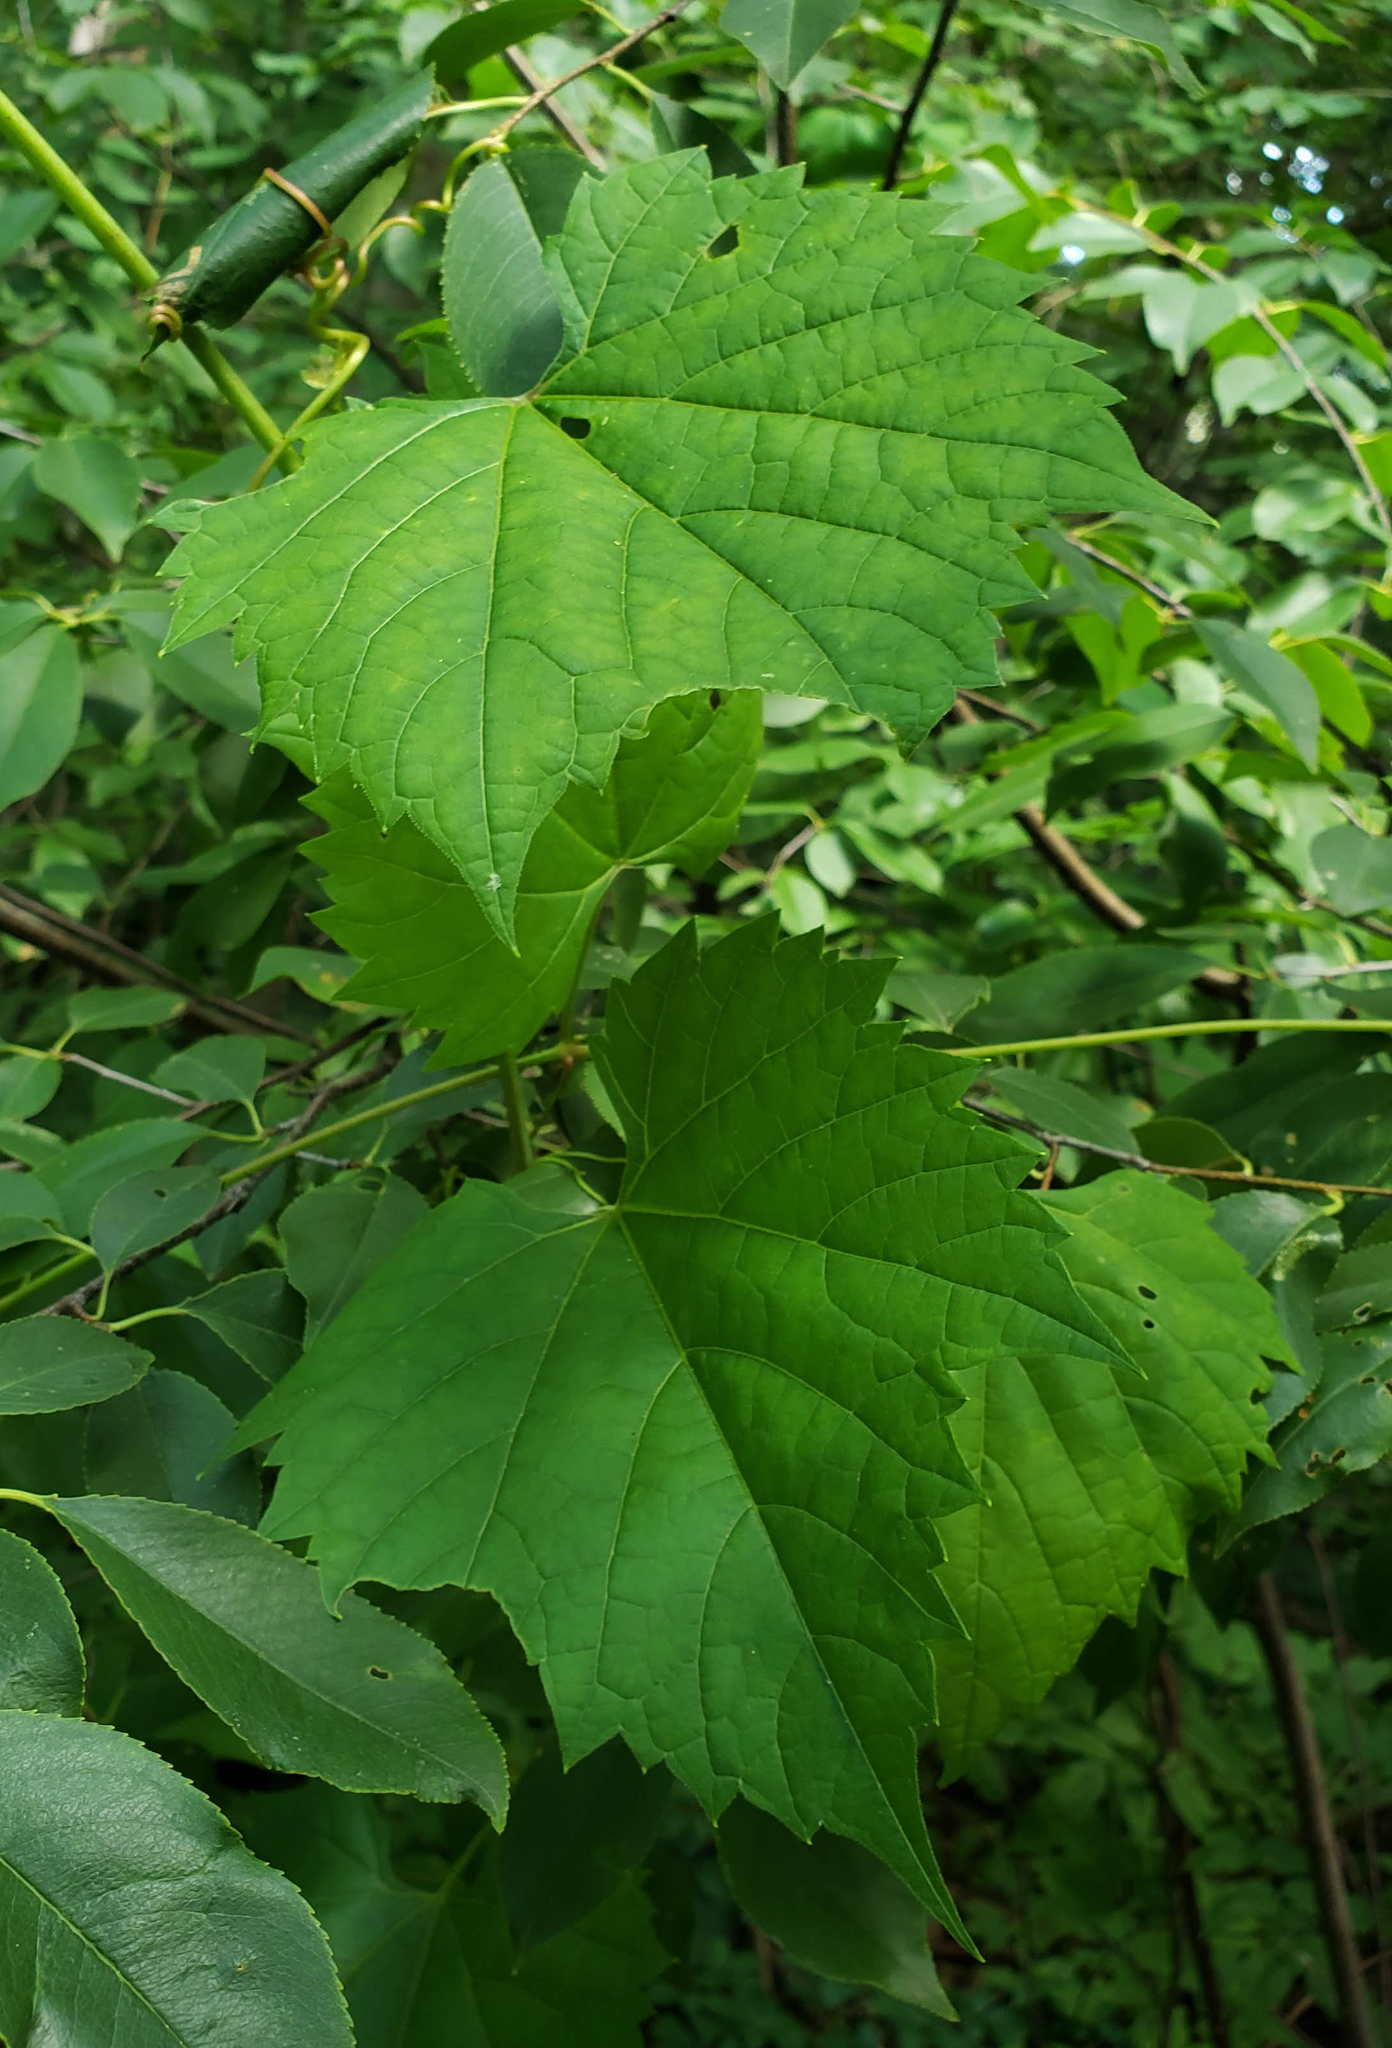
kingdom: Plantae
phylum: Tracheophyta
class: Magnoliopsida
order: Vitales
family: Vitaceae
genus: Vitis
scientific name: Vitis riparia
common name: Frost grape
